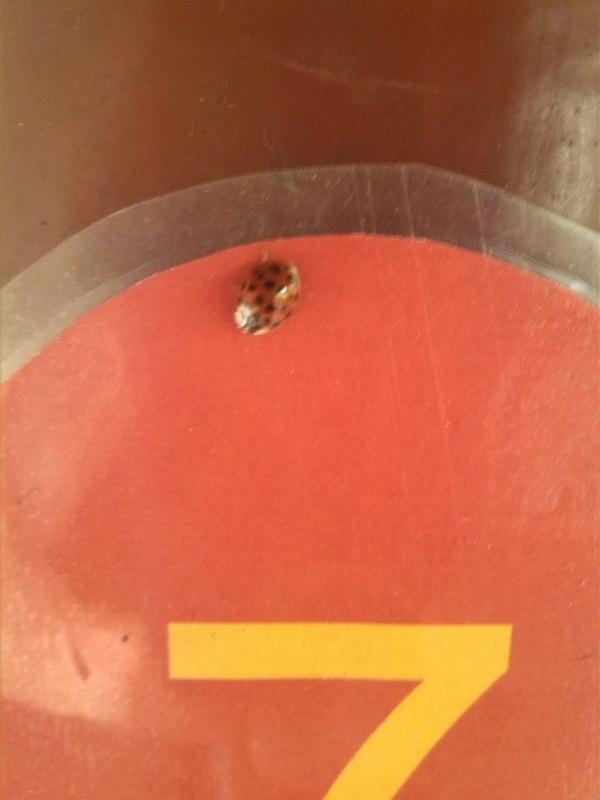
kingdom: Animalia
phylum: Arthropoda
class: Insecta
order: Coleoptera
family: Coccinellidae
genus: Harmonia
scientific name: Harmonia axyridis
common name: Harlequin ladybird
